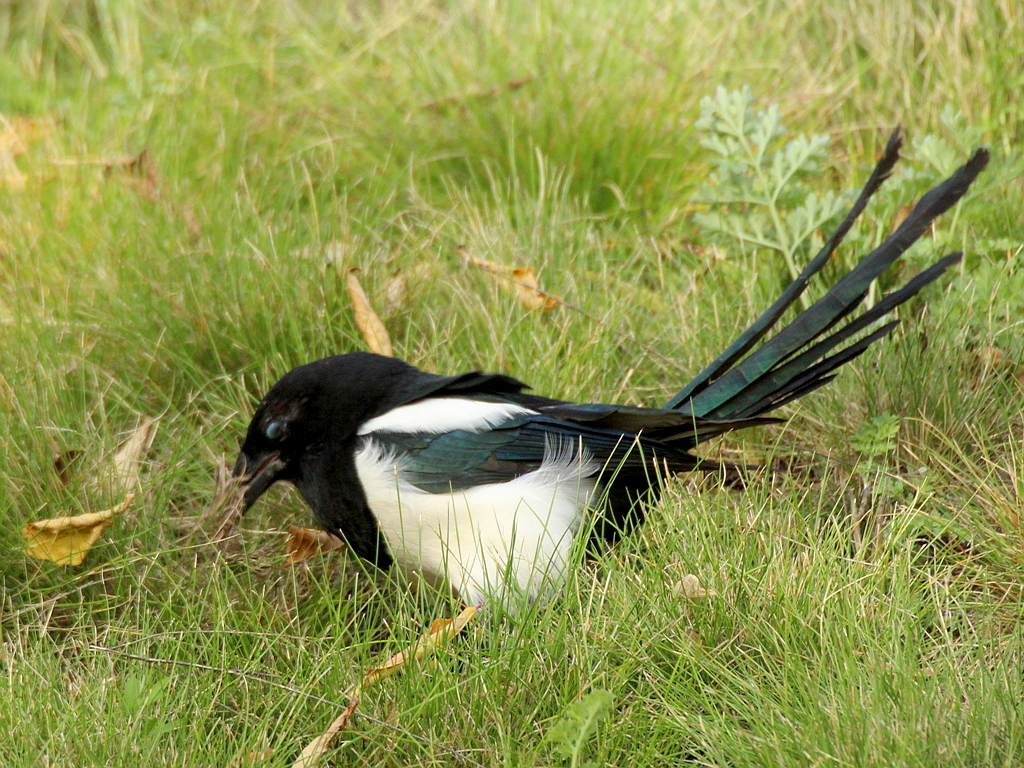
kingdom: Animalia
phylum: Chordata
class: Aves
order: Passeriformes
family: Corvidae
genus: Pica
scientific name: Pica pica
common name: Eurasian magpie
